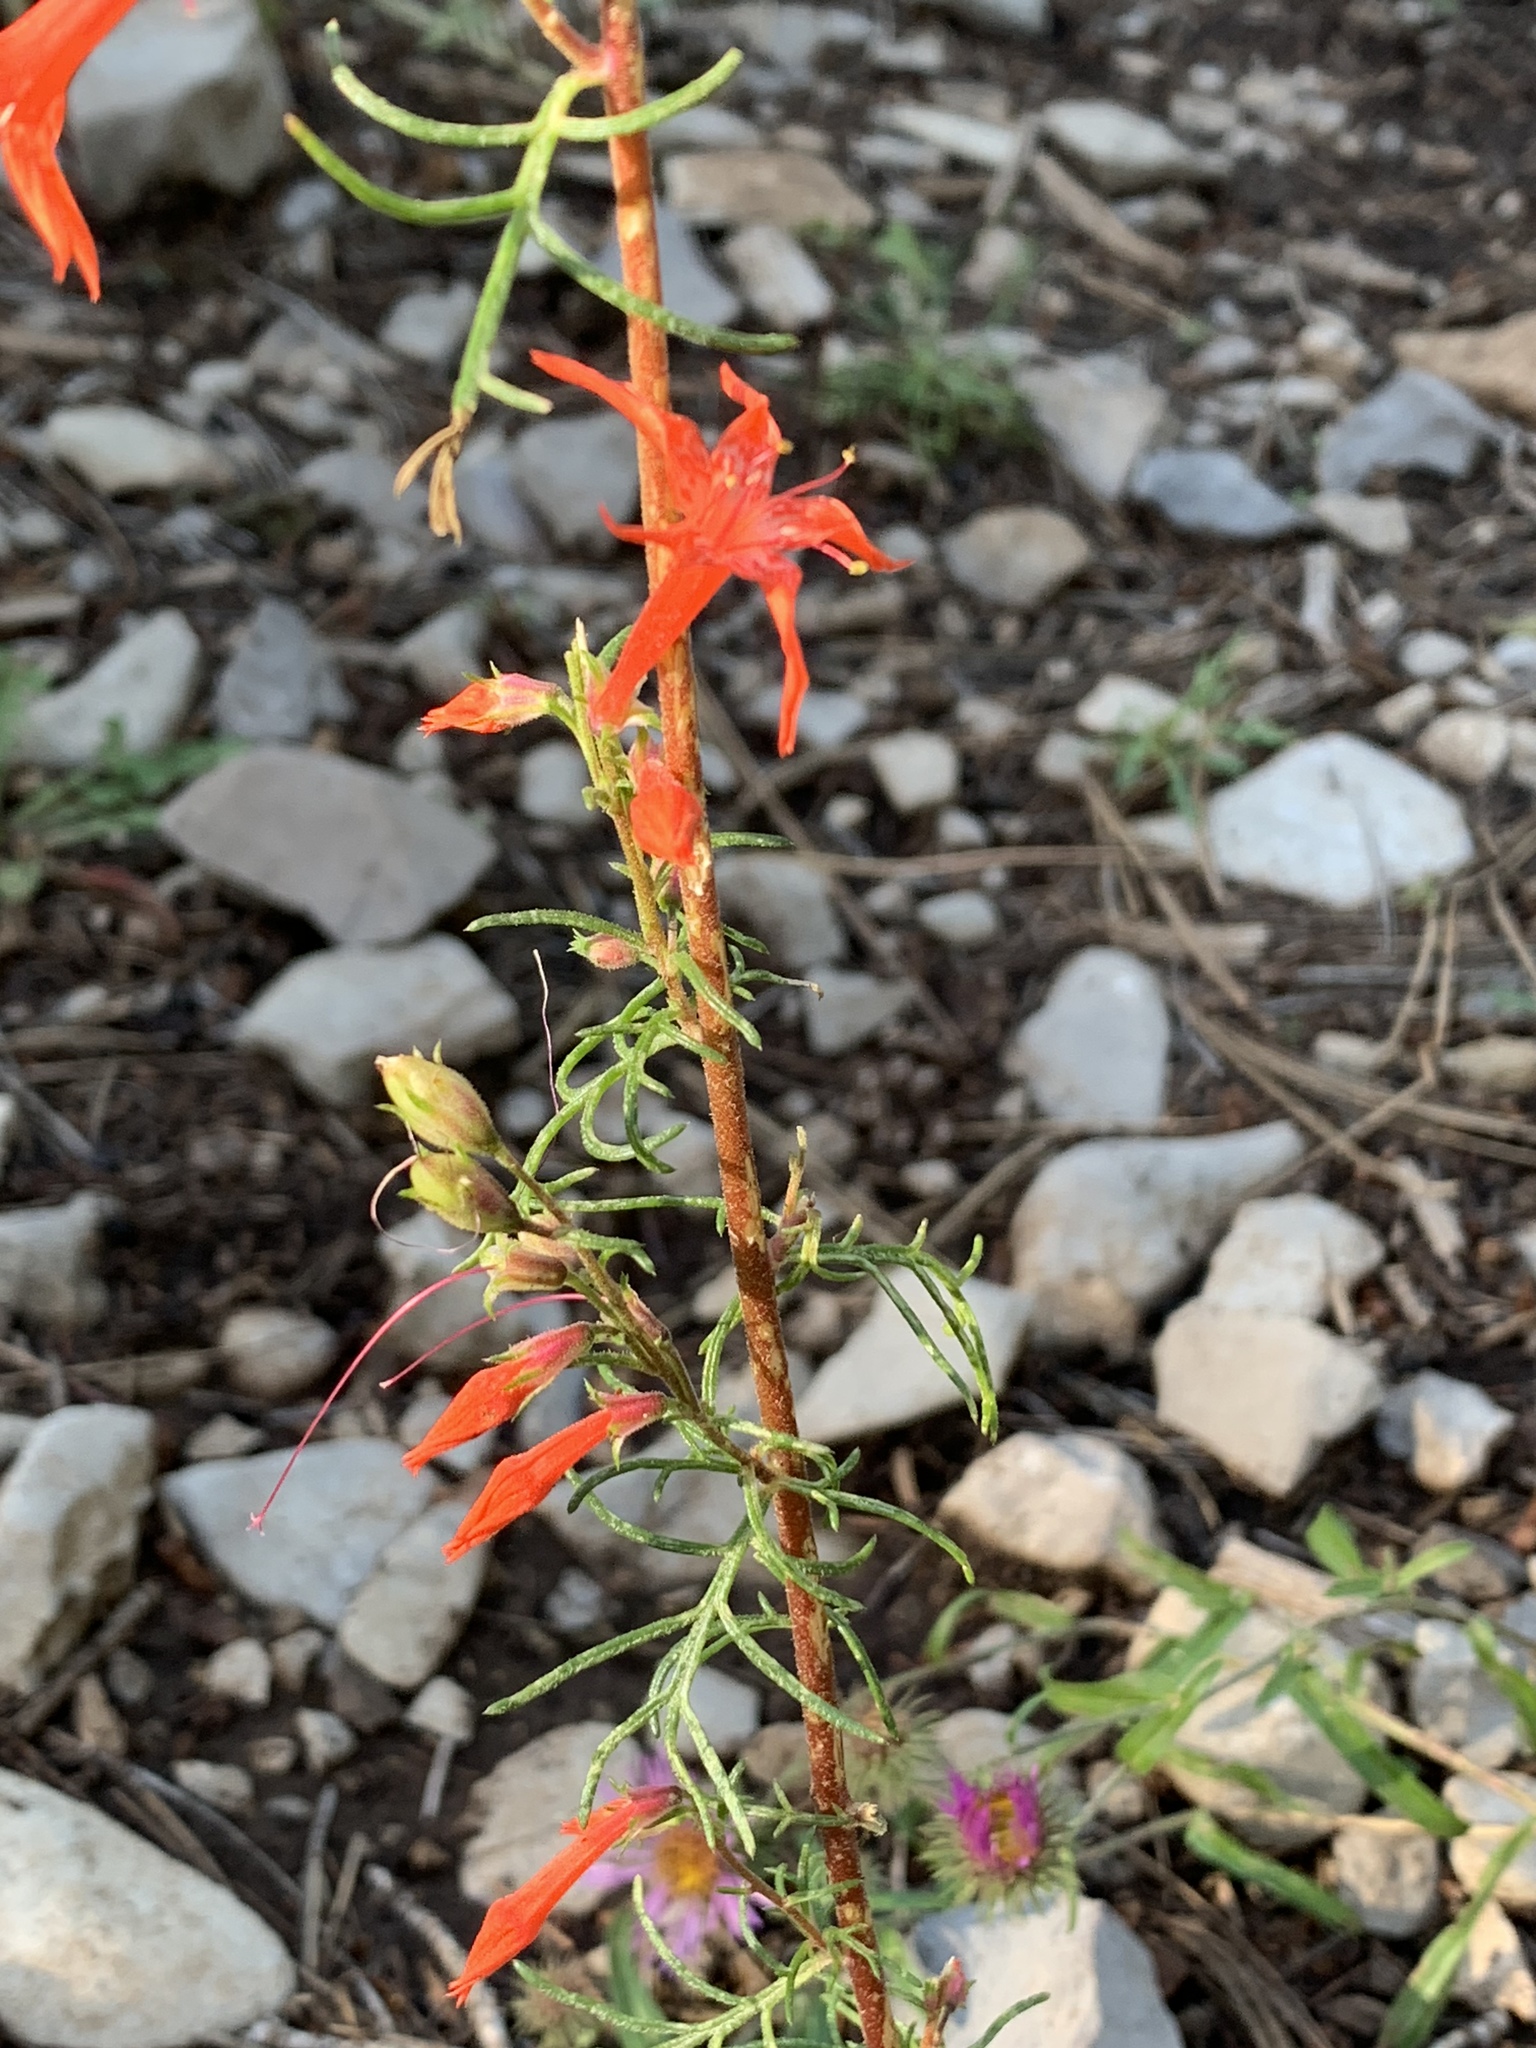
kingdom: Plantae
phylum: Tracheophyta
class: Magnoliopsida
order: Ericales
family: Polemoniaceae
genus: Ipomopsis
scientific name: Ipomopsis aggregata
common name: Scarlet gilia
